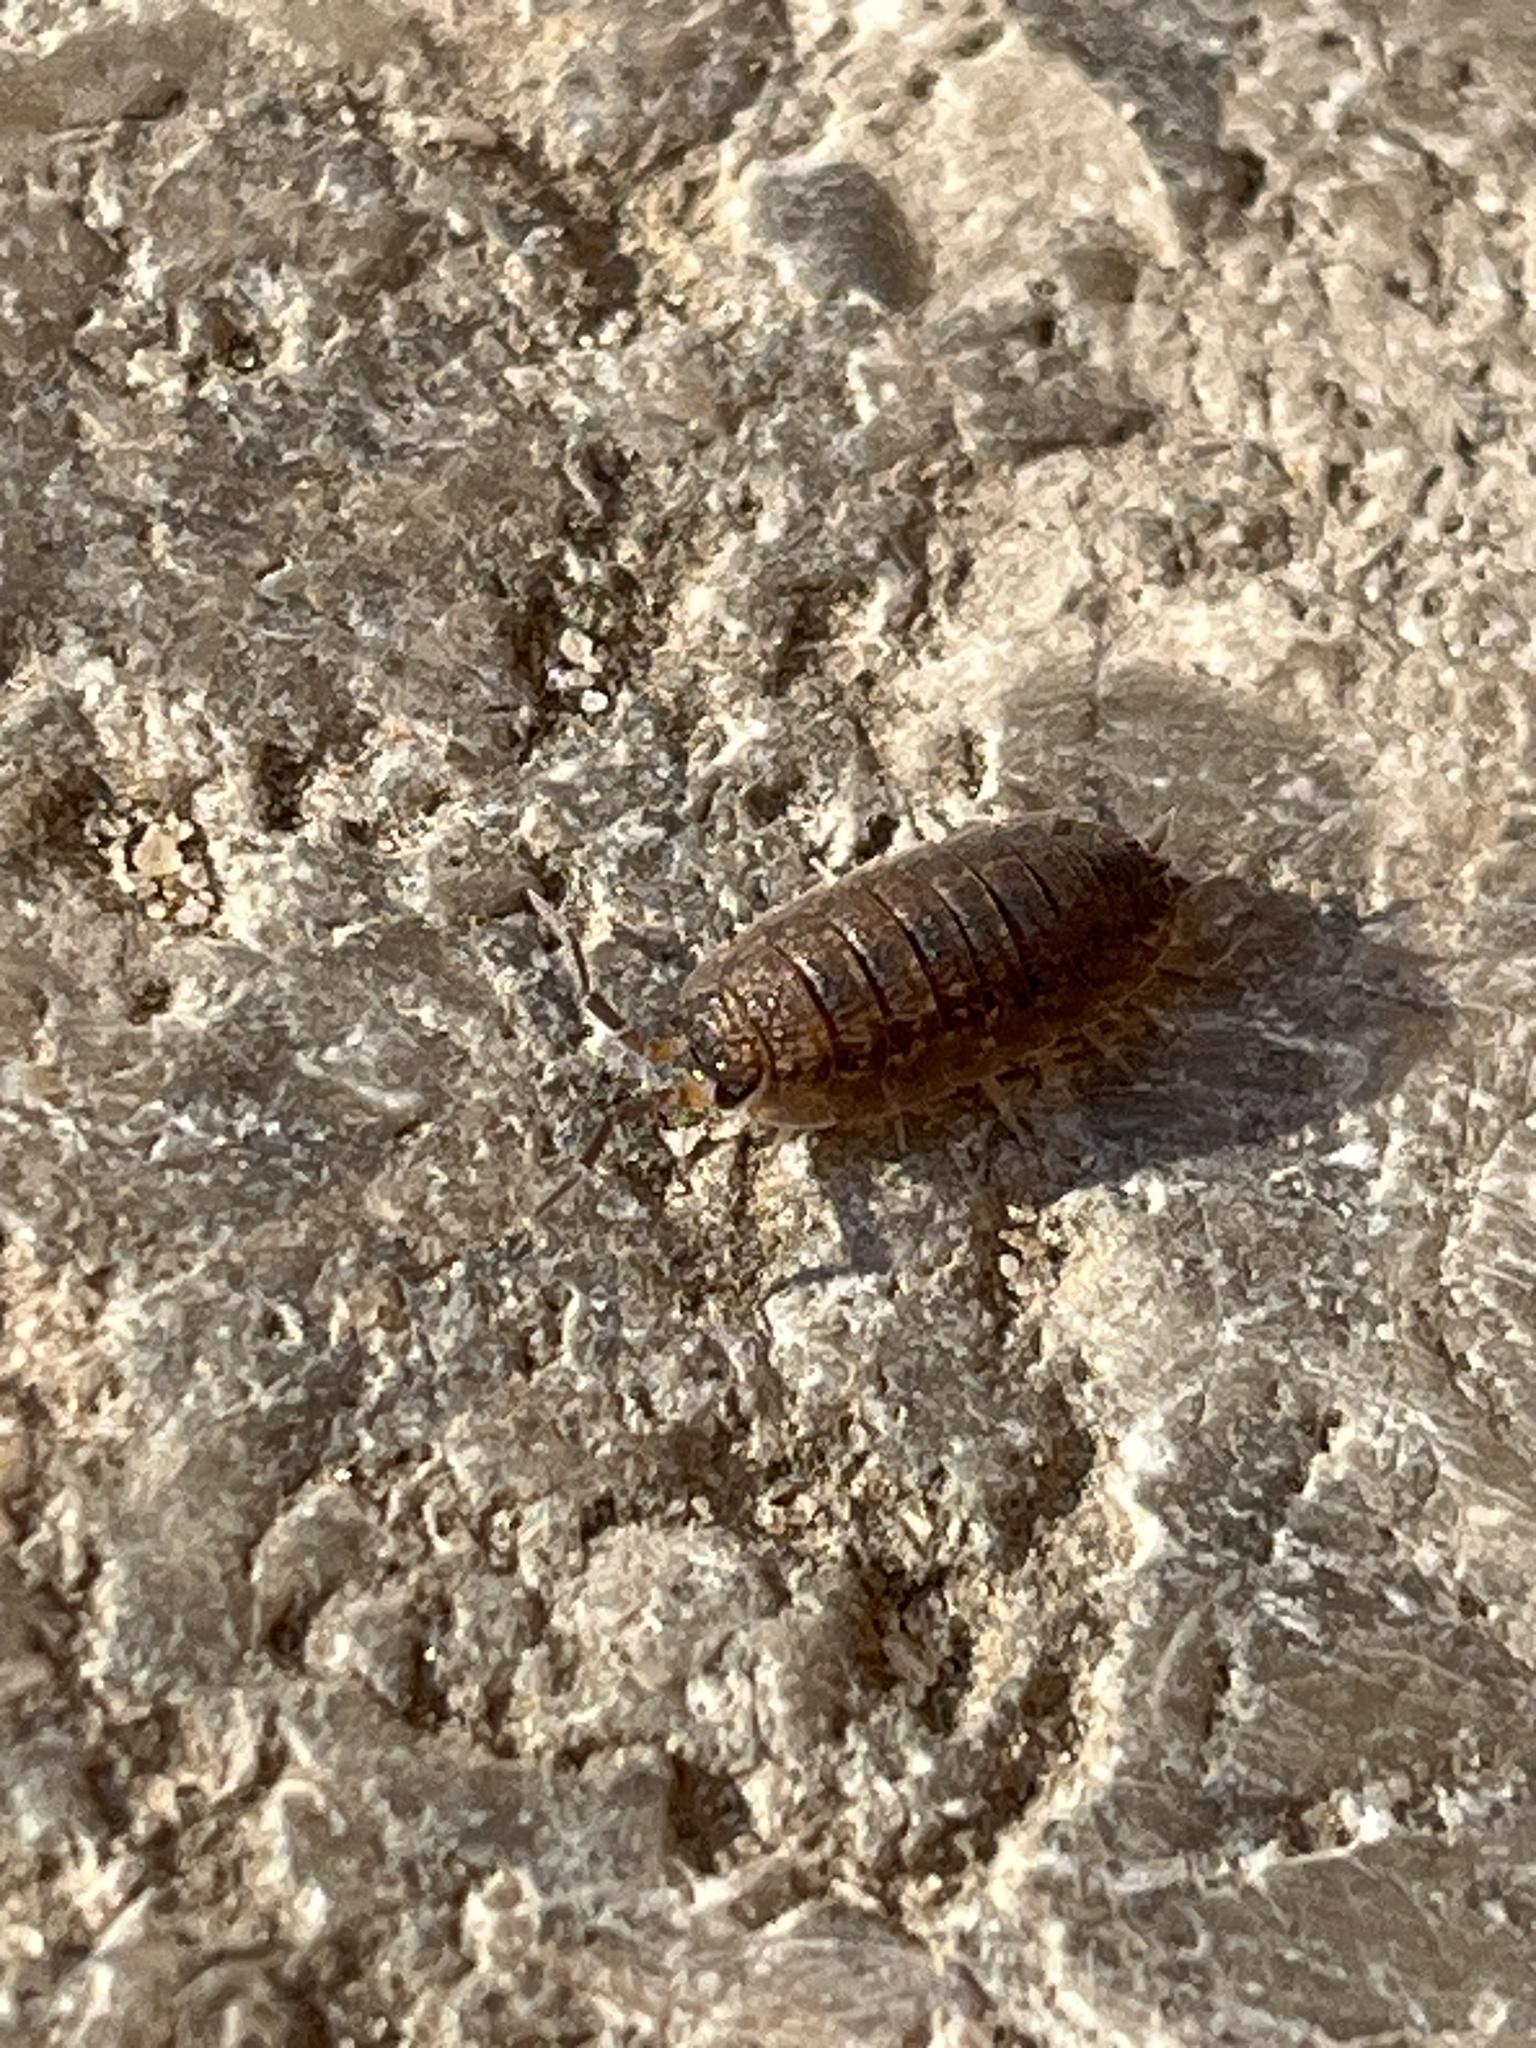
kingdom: Animalia
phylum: Arthropoda
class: Malacostraca
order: Isopoda
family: Porcellionidae
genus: Porcellio
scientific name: Porcellio scaber
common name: Common rough woodlouse
